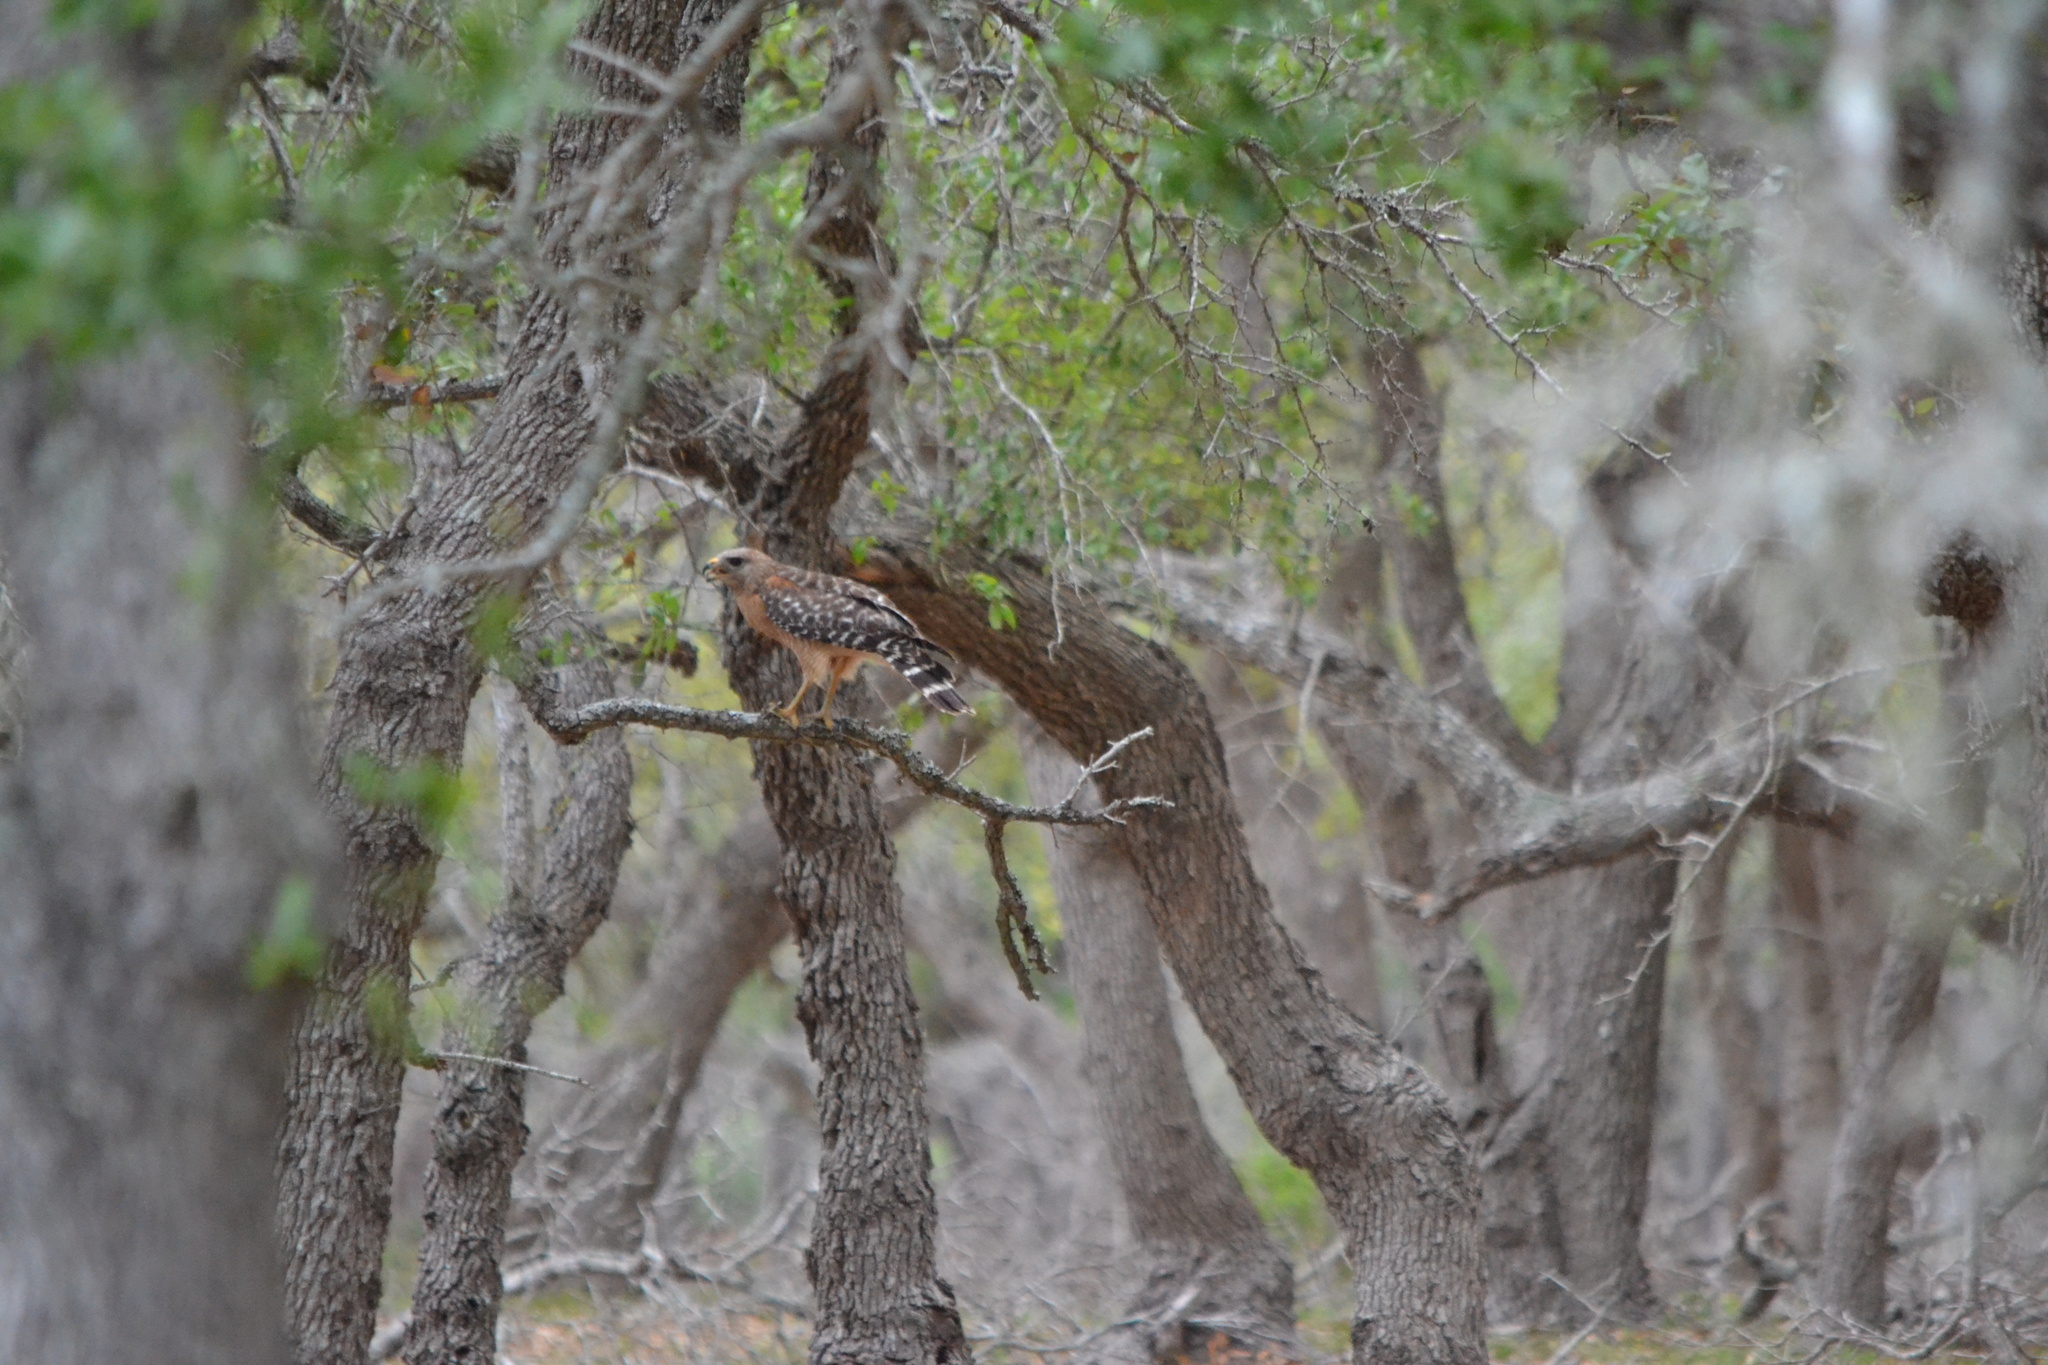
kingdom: Animalia
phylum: Chordata
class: Aves
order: Accipitriformes
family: Accipitridae
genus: Buteo
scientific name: Buteo lineatus
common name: Red-shouldered hawk
